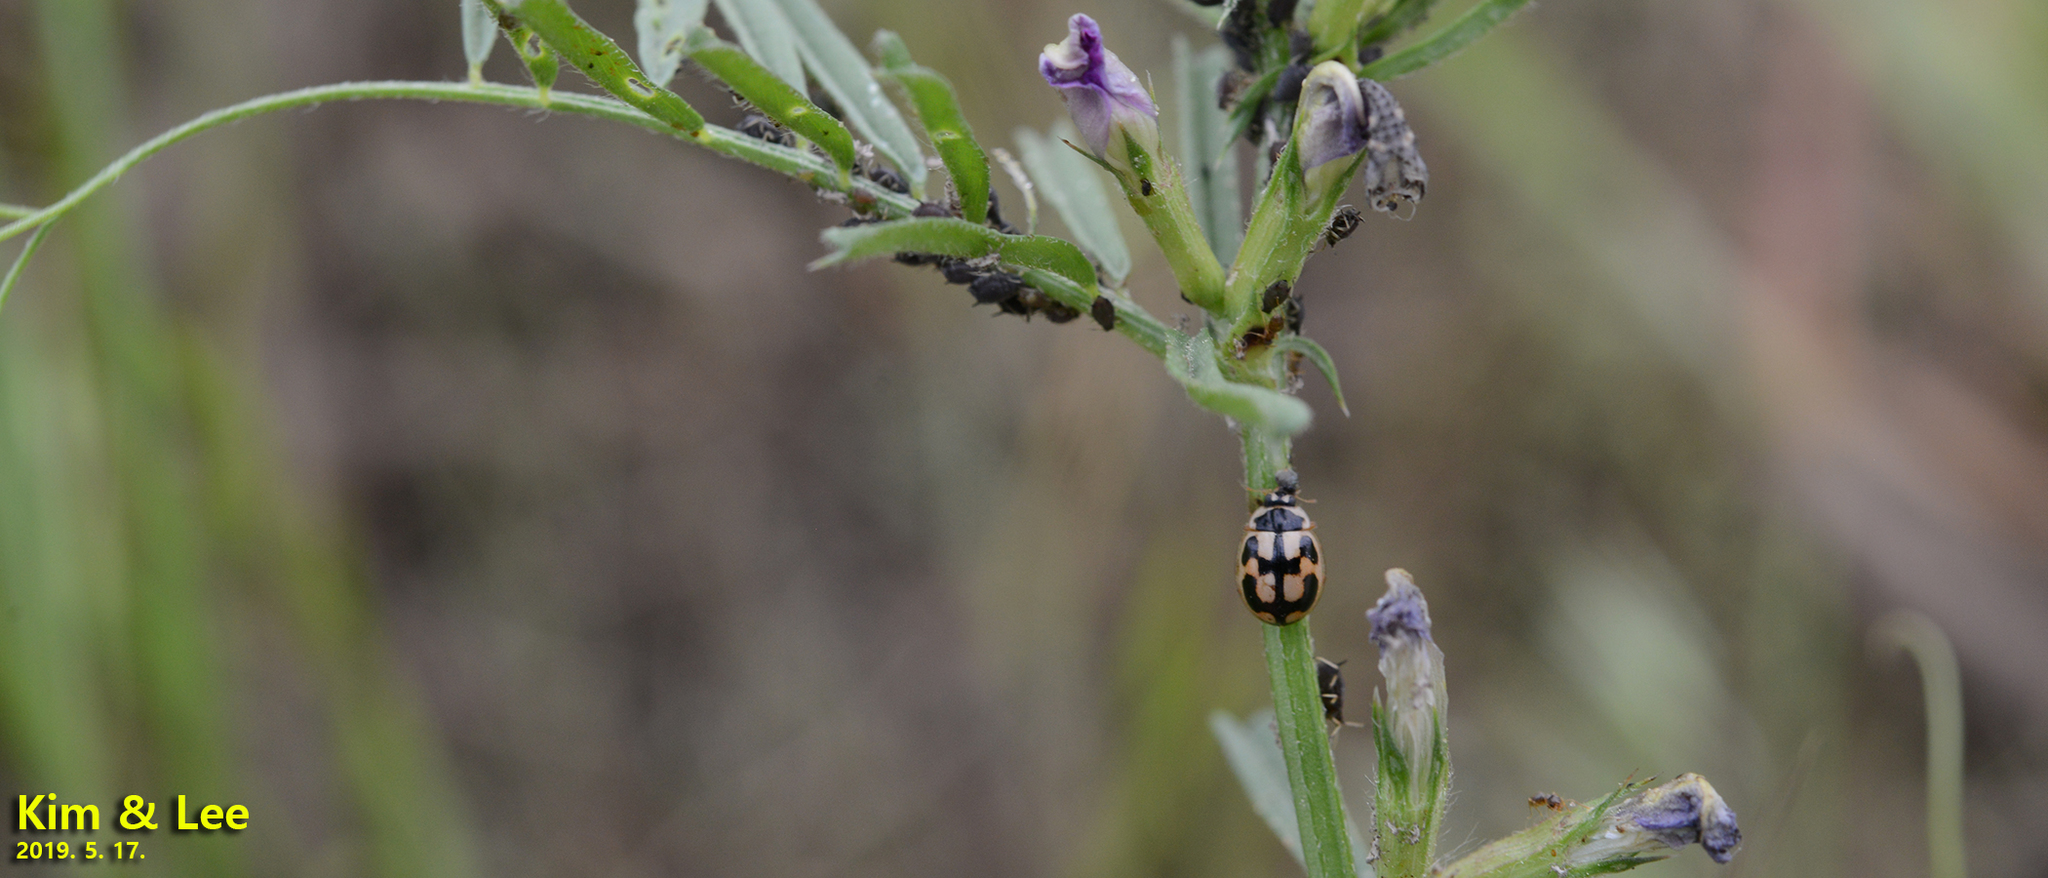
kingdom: Animalia
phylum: Arthropoda
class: Insecta
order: Coleoptera
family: Coccinellidae
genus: Propylea
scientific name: Propylea japonica
